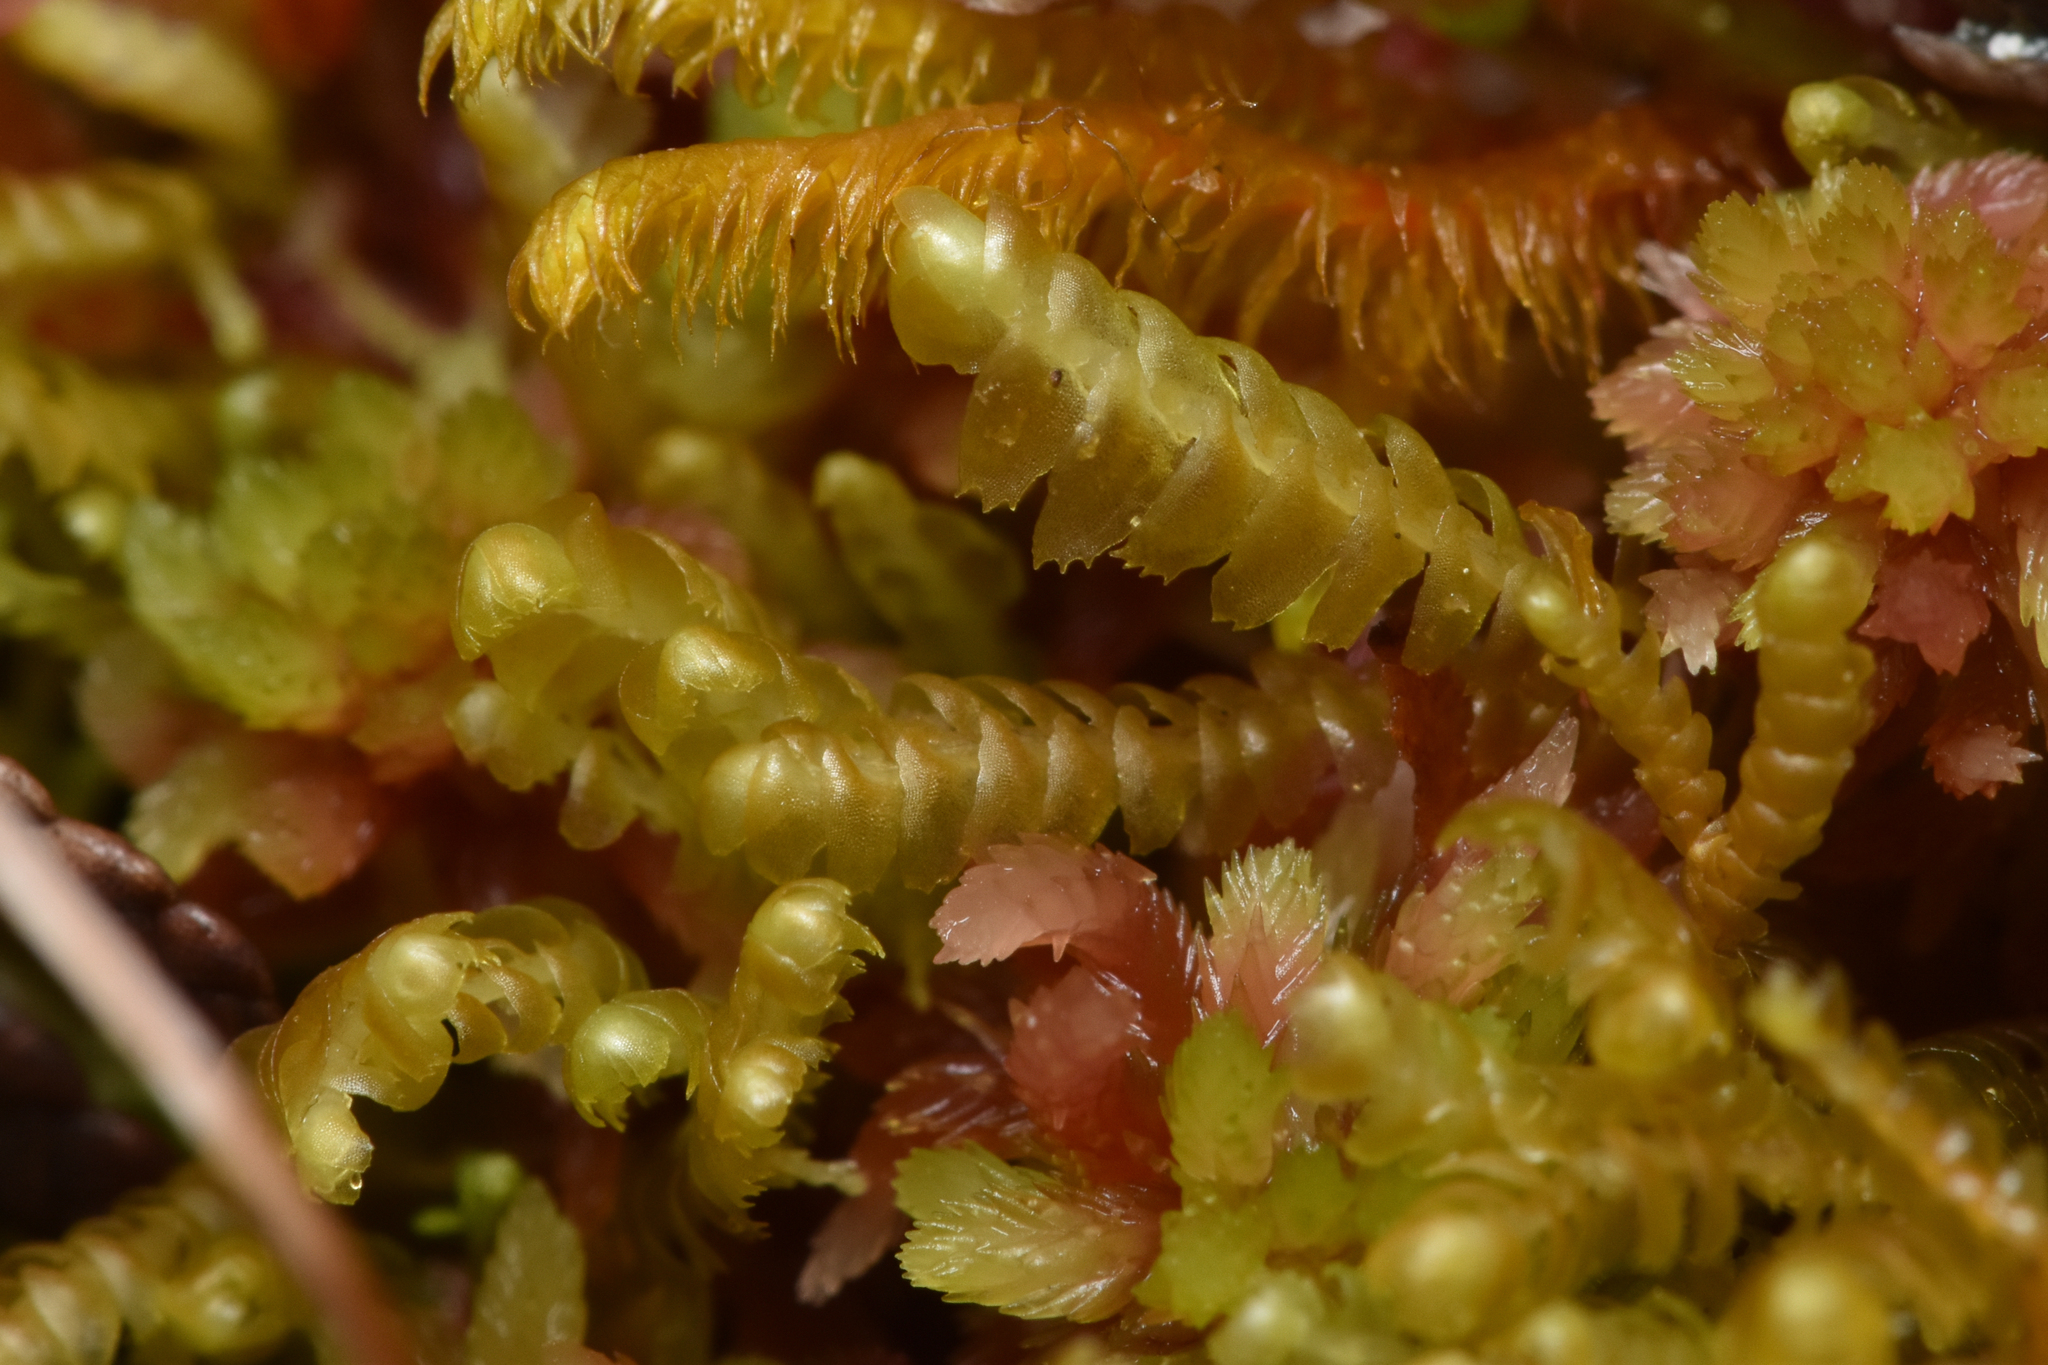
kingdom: Plantae
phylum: Marchantiophyta
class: Jungermanniopsida
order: Jungermanniales
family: Lepidoziaceae
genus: Bazzania
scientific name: Bazzania tricrenata
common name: Lesser whipwort
